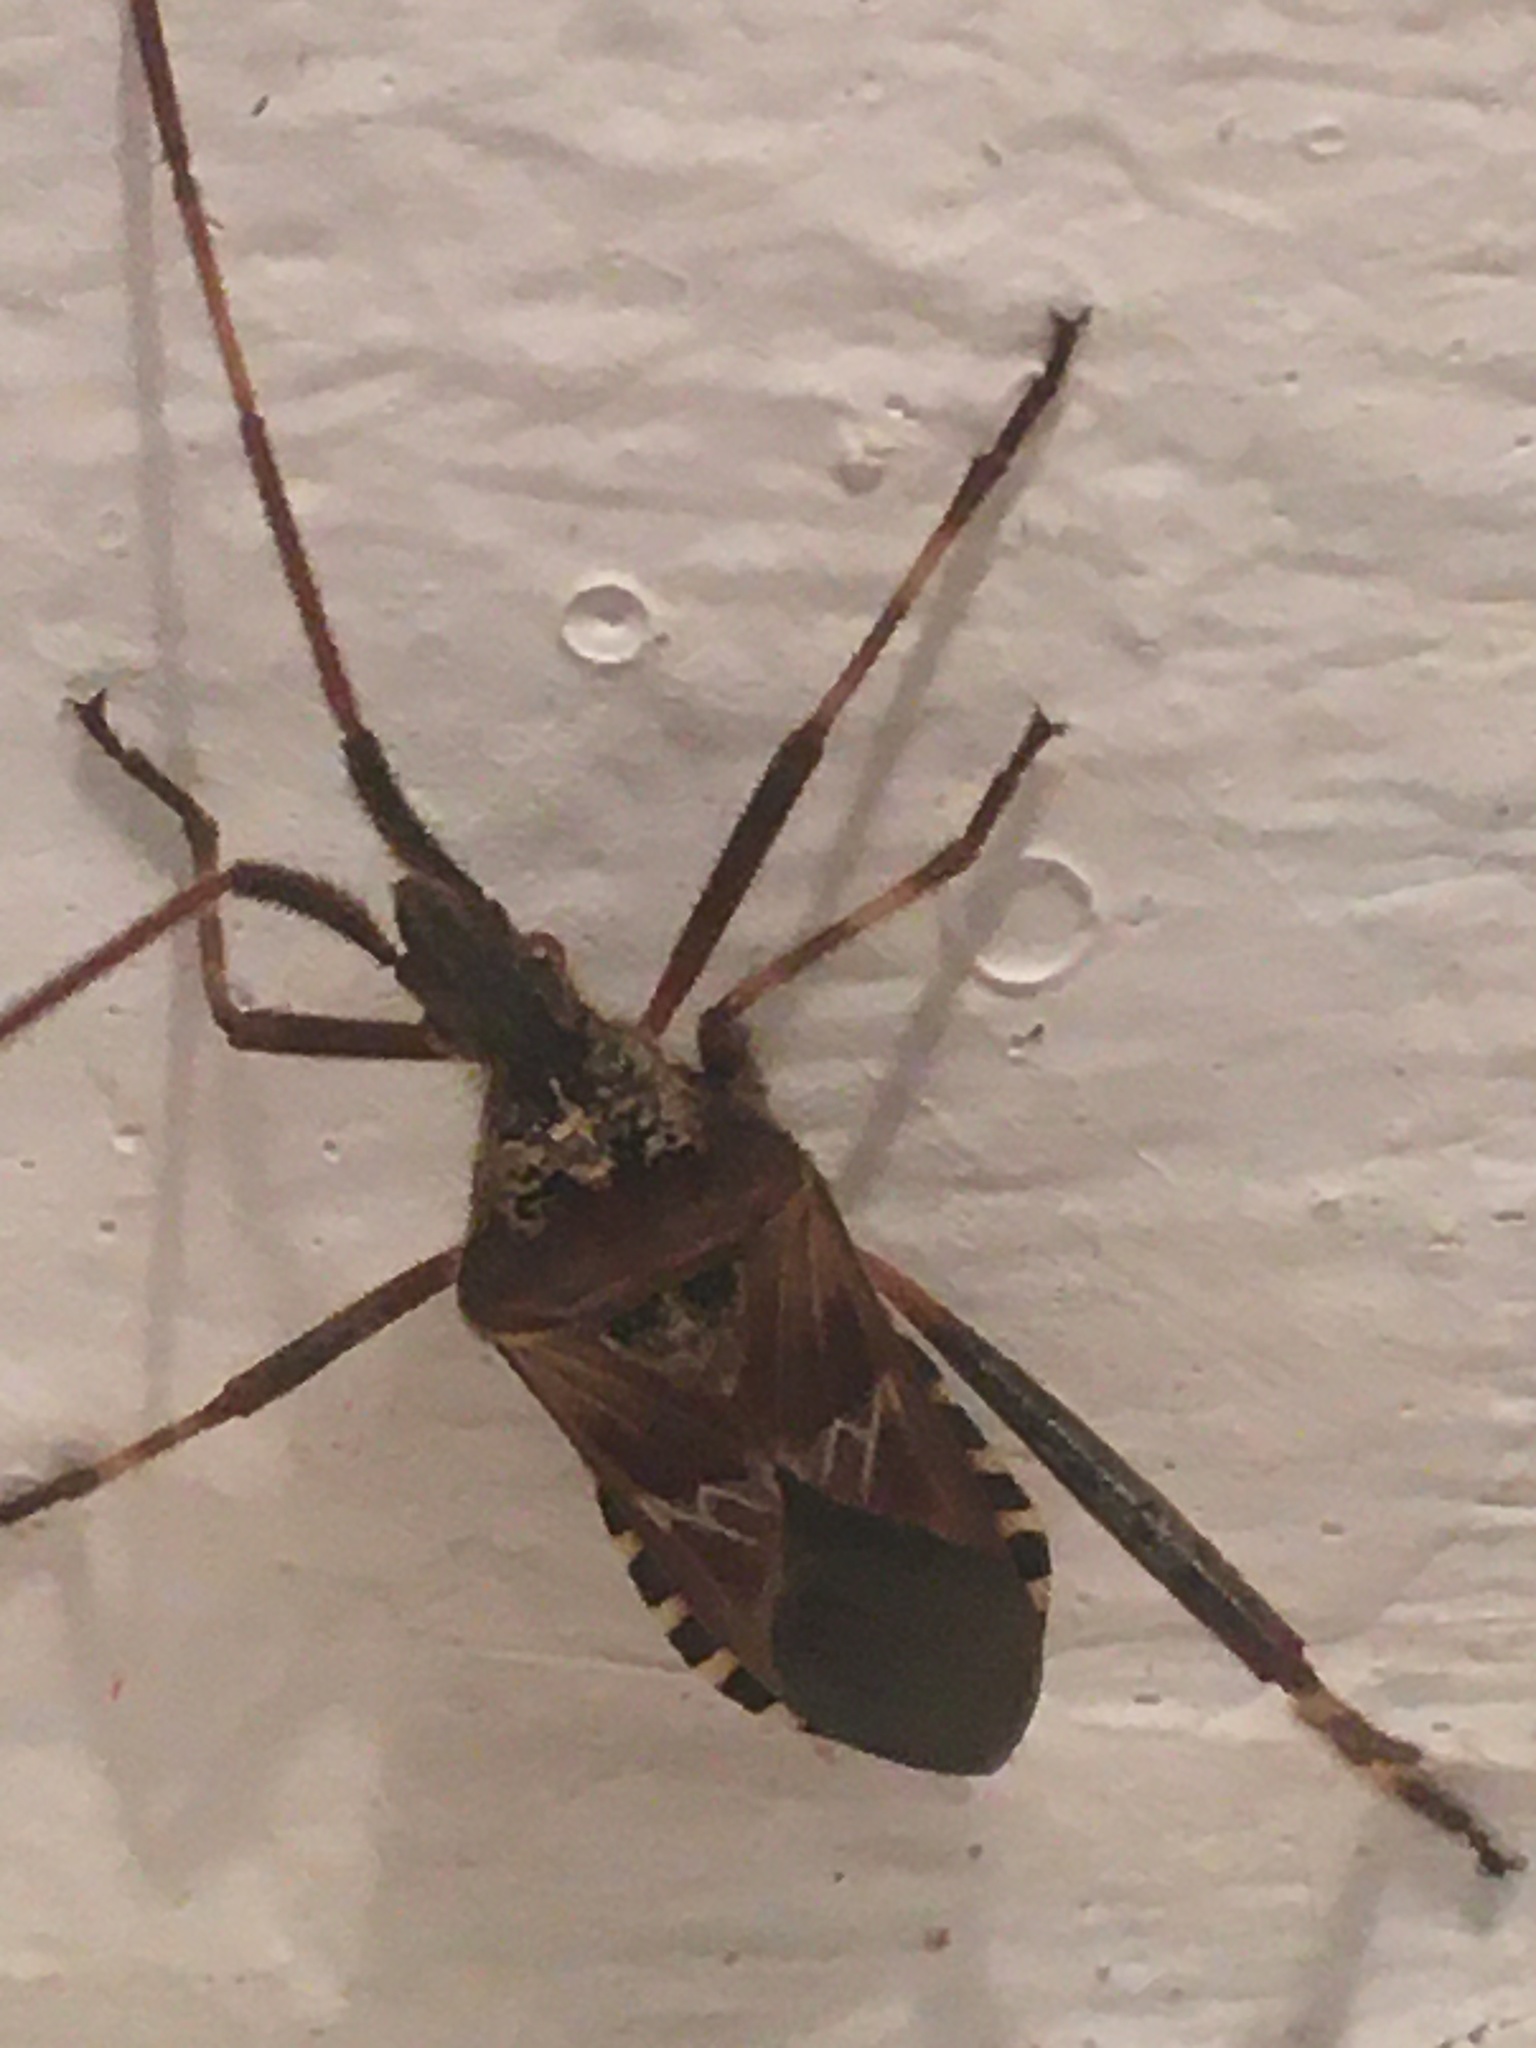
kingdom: Animalia
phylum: Arthropoda
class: Insecta
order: Hemiptera
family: Coreidae
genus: Leptoglossus
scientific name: Leptoglossus occidentalis
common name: Western conifer-seed bug
